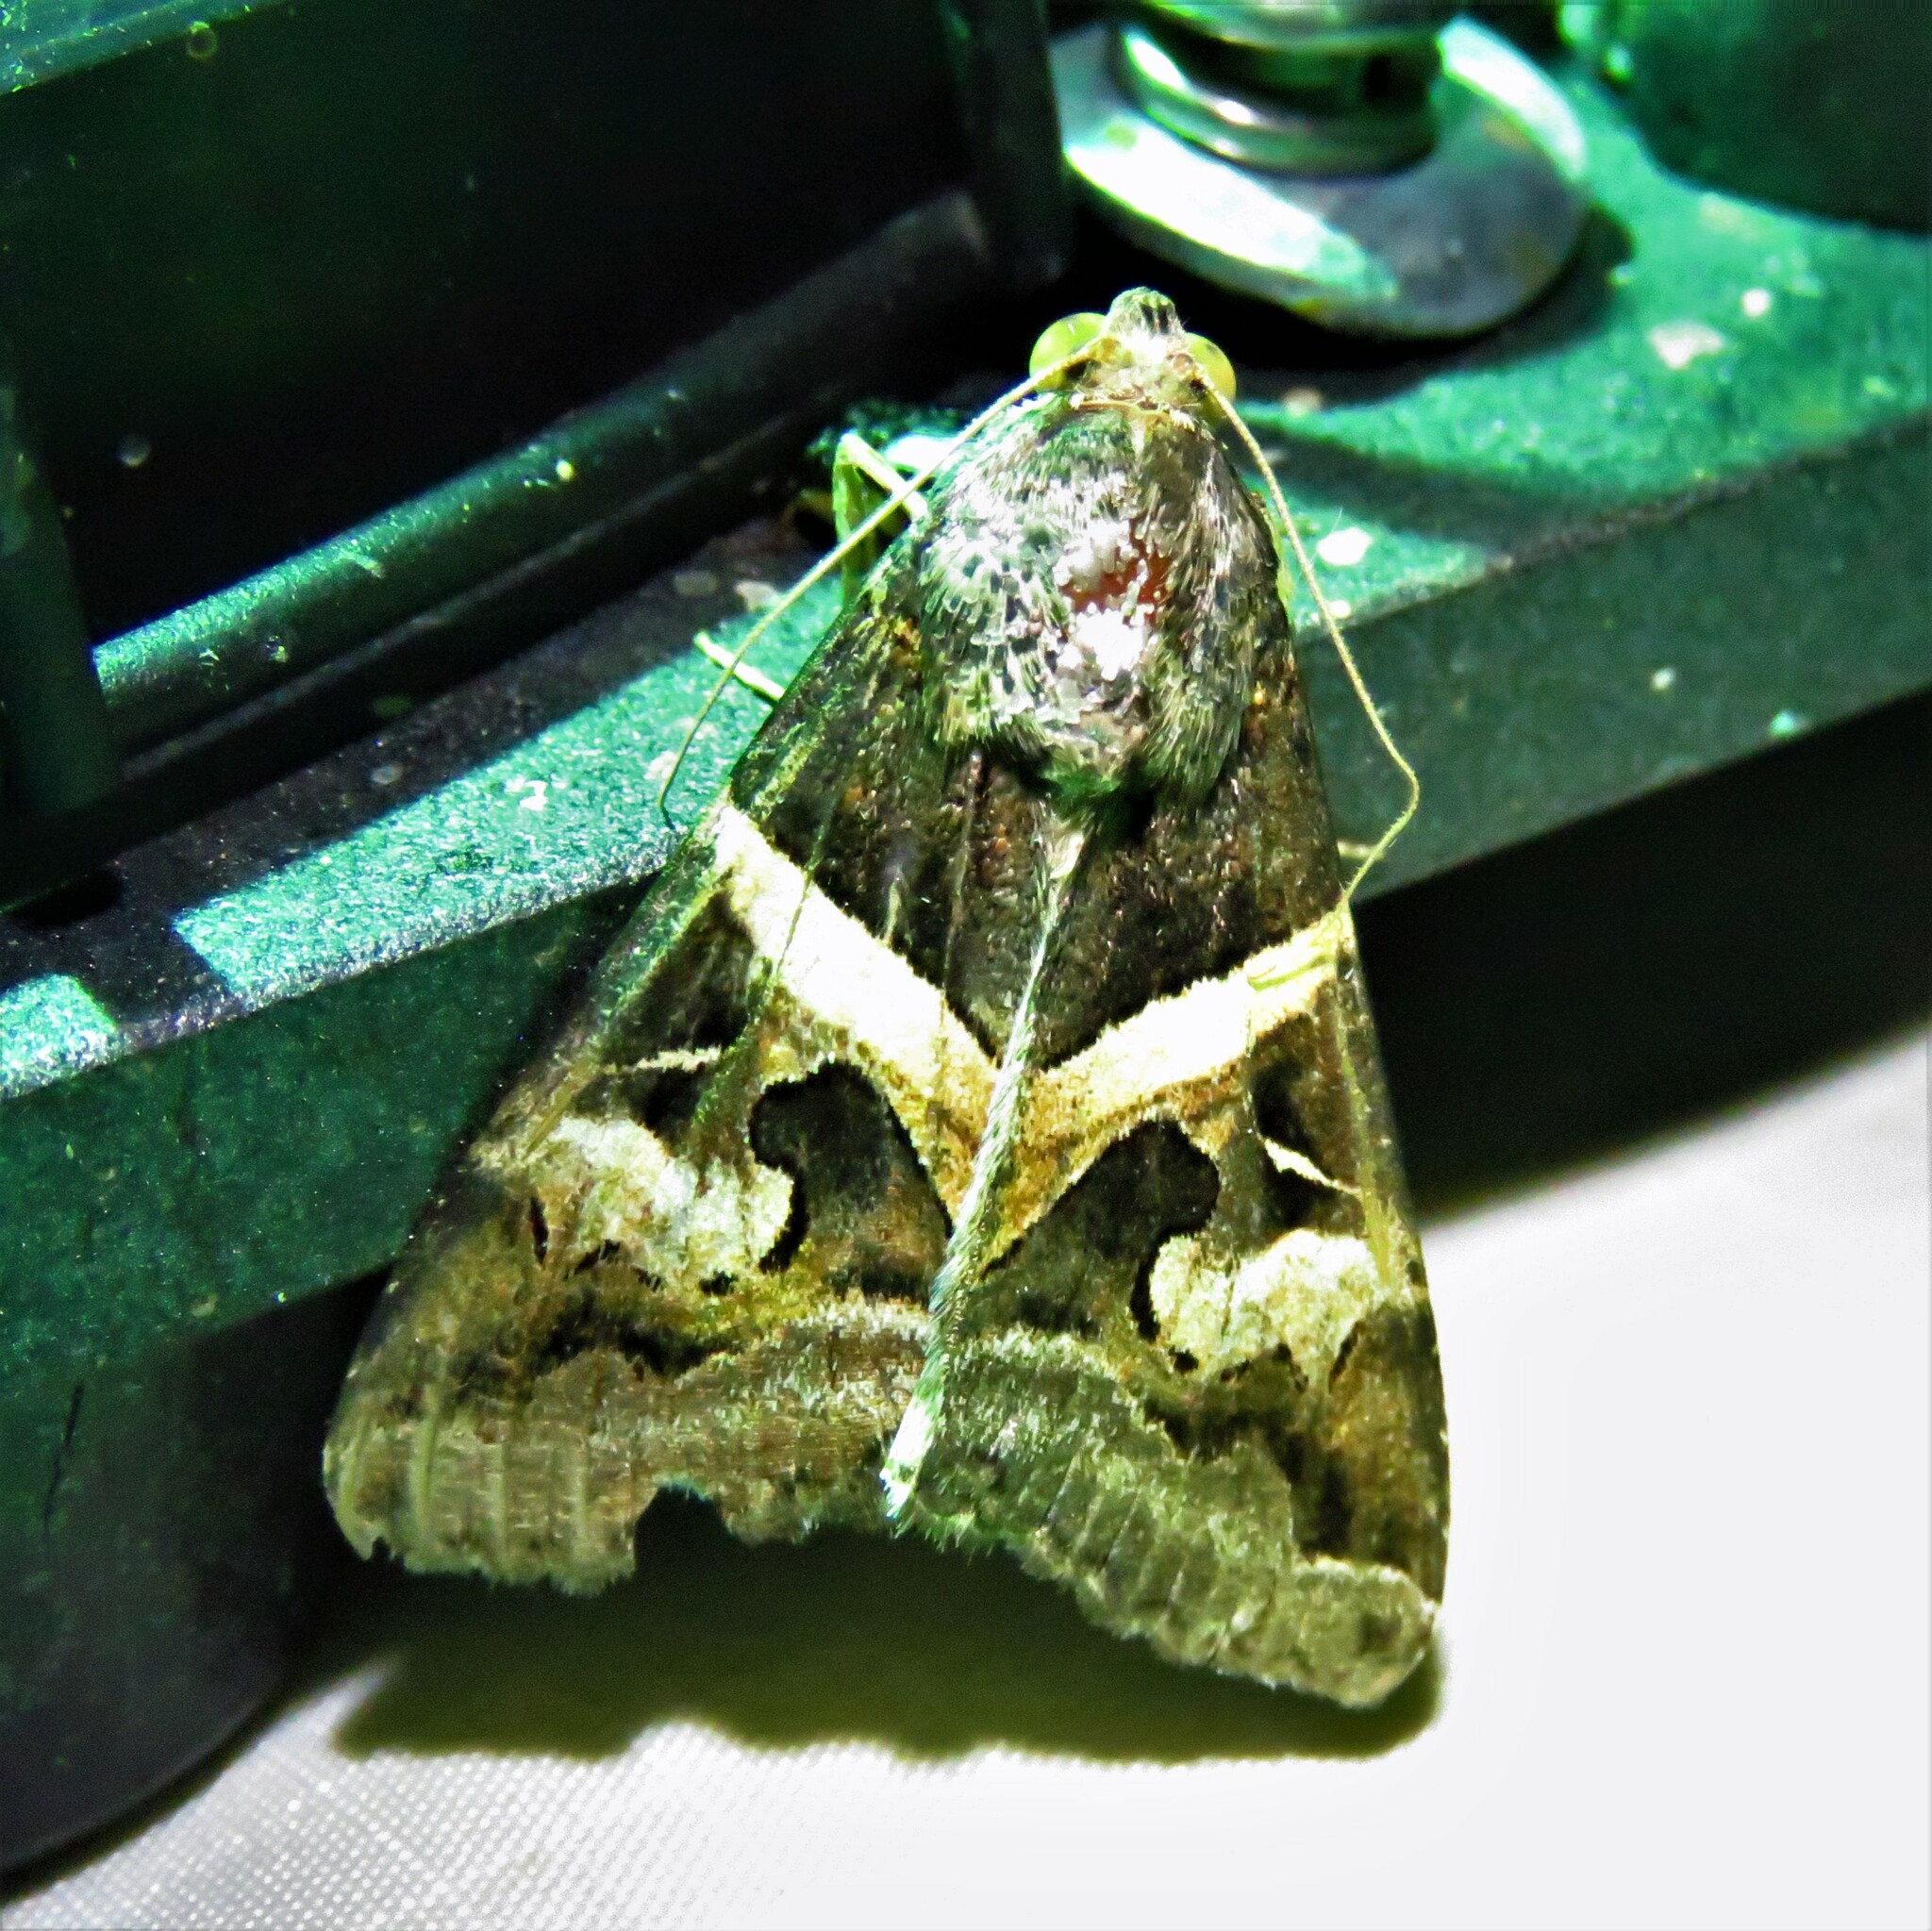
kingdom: Animalia
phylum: Arthropoda
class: Insecta
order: Lepidoptera
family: Erebidae
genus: Melipotis
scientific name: Melipotis indomita
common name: Moth
